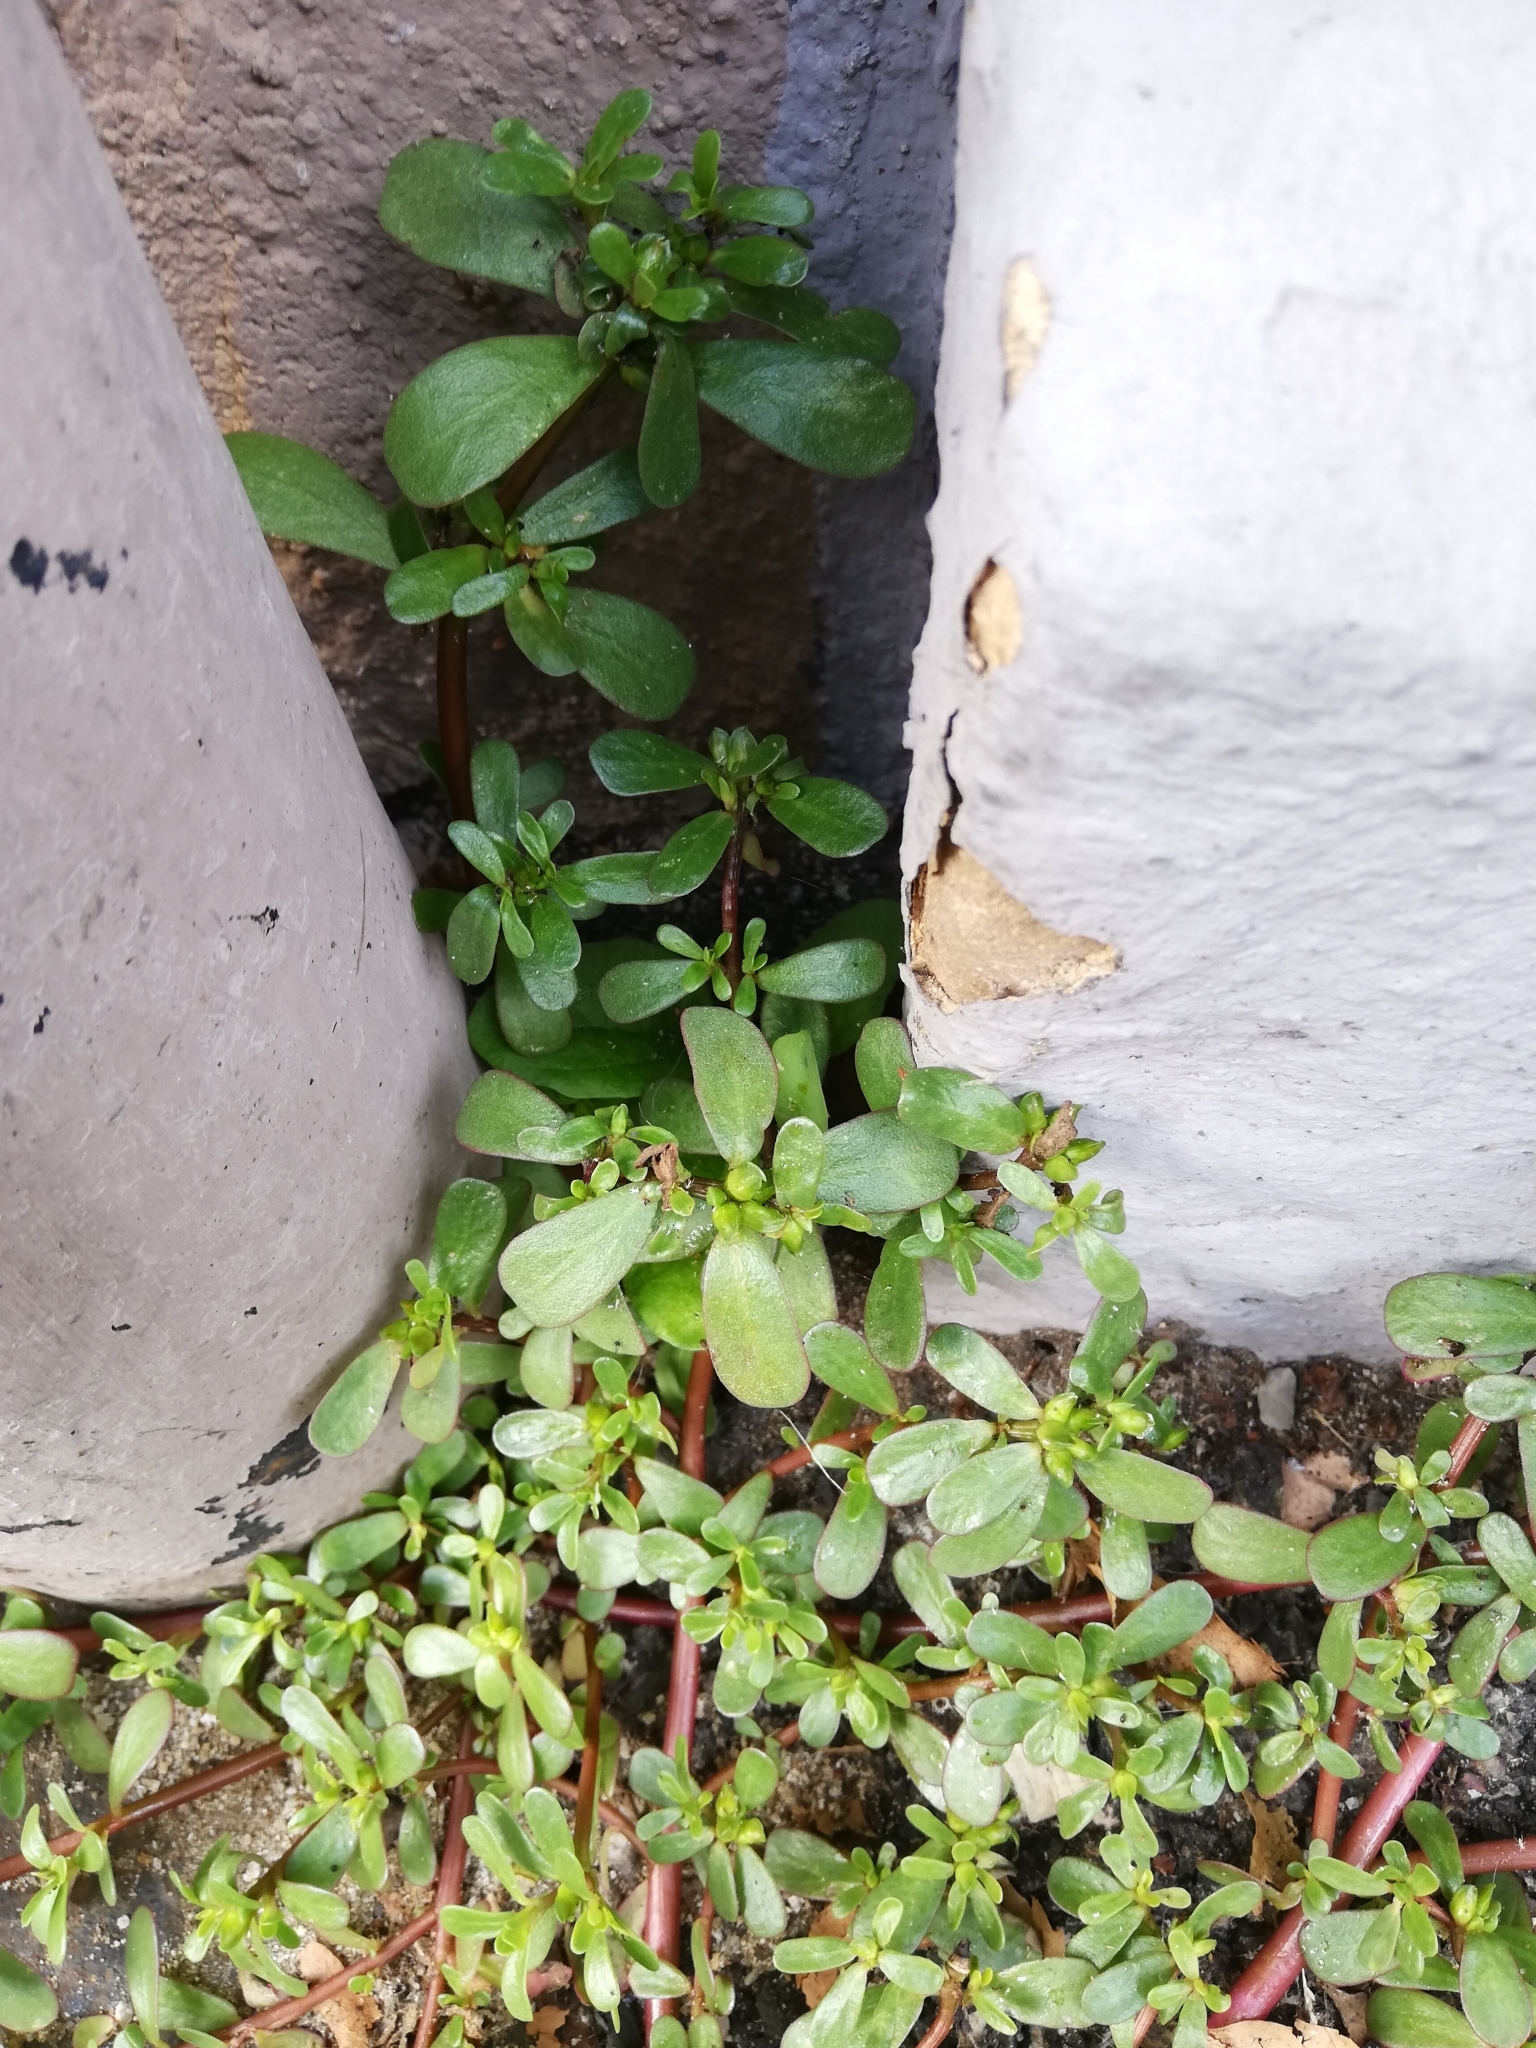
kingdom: Plantae
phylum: Tracheophyta
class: Magnoliopsida
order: Caryophyllales
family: Portulacaceae
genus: Portulaca
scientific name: Portulaca oleracea
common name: Common purslane
